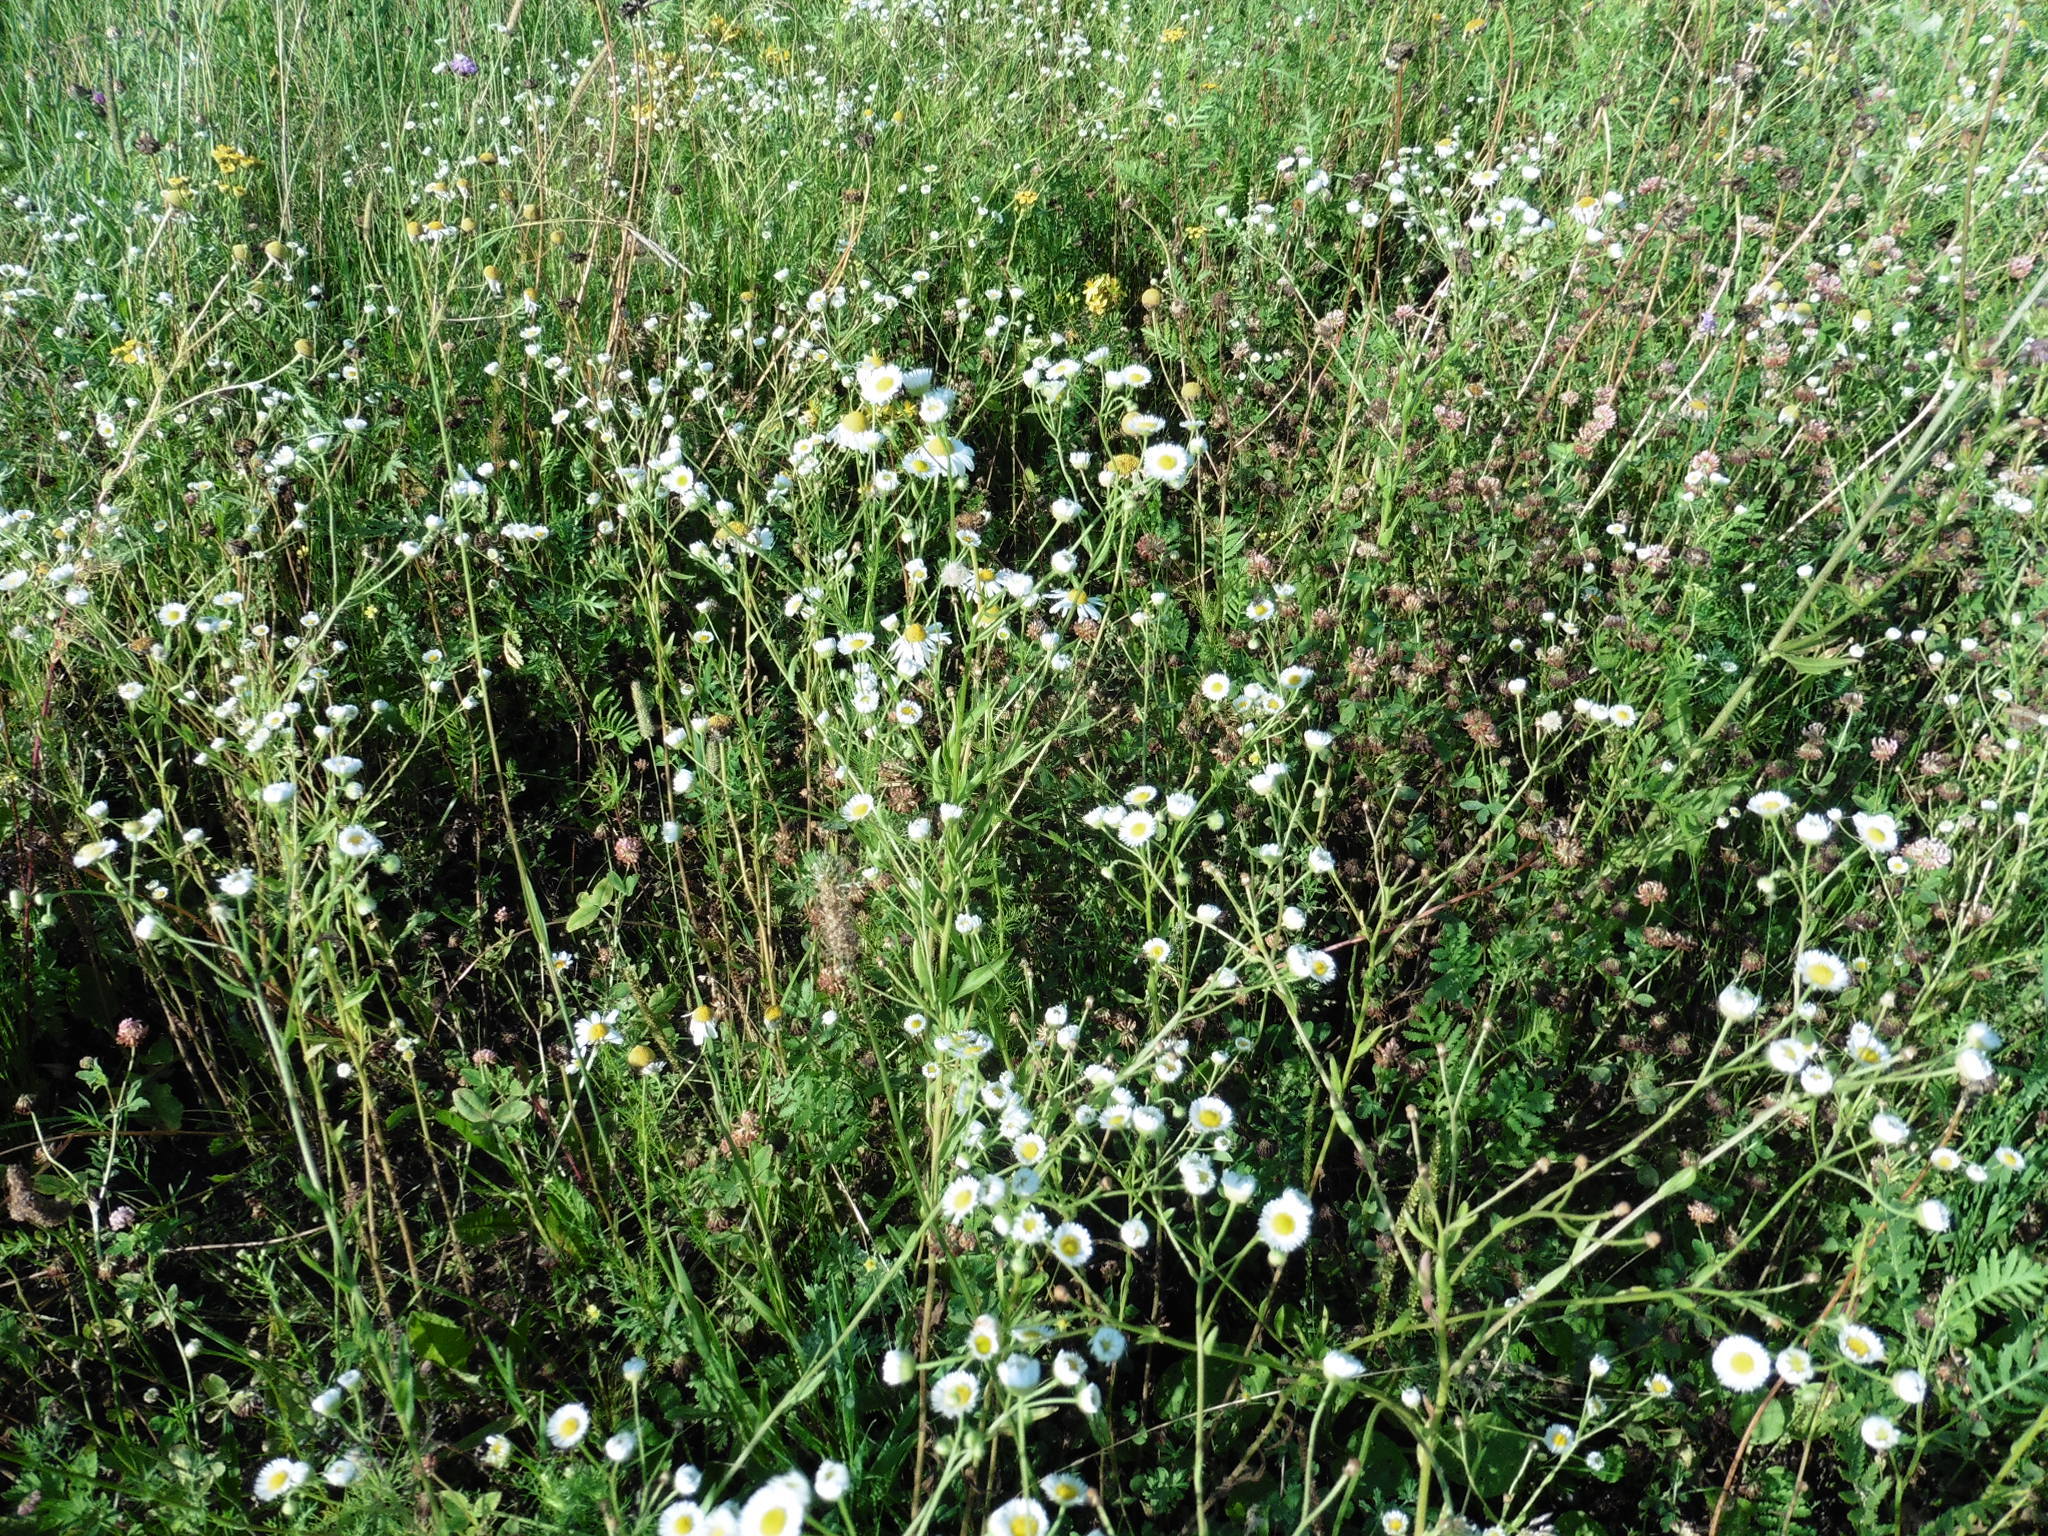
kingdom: Plantae
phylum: Tracheophyta
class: Magnoliopsida
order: Asterales
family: Asteraceae
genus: Erigeron
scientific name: Erigeron strigosus
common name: Common eastern fleabane
